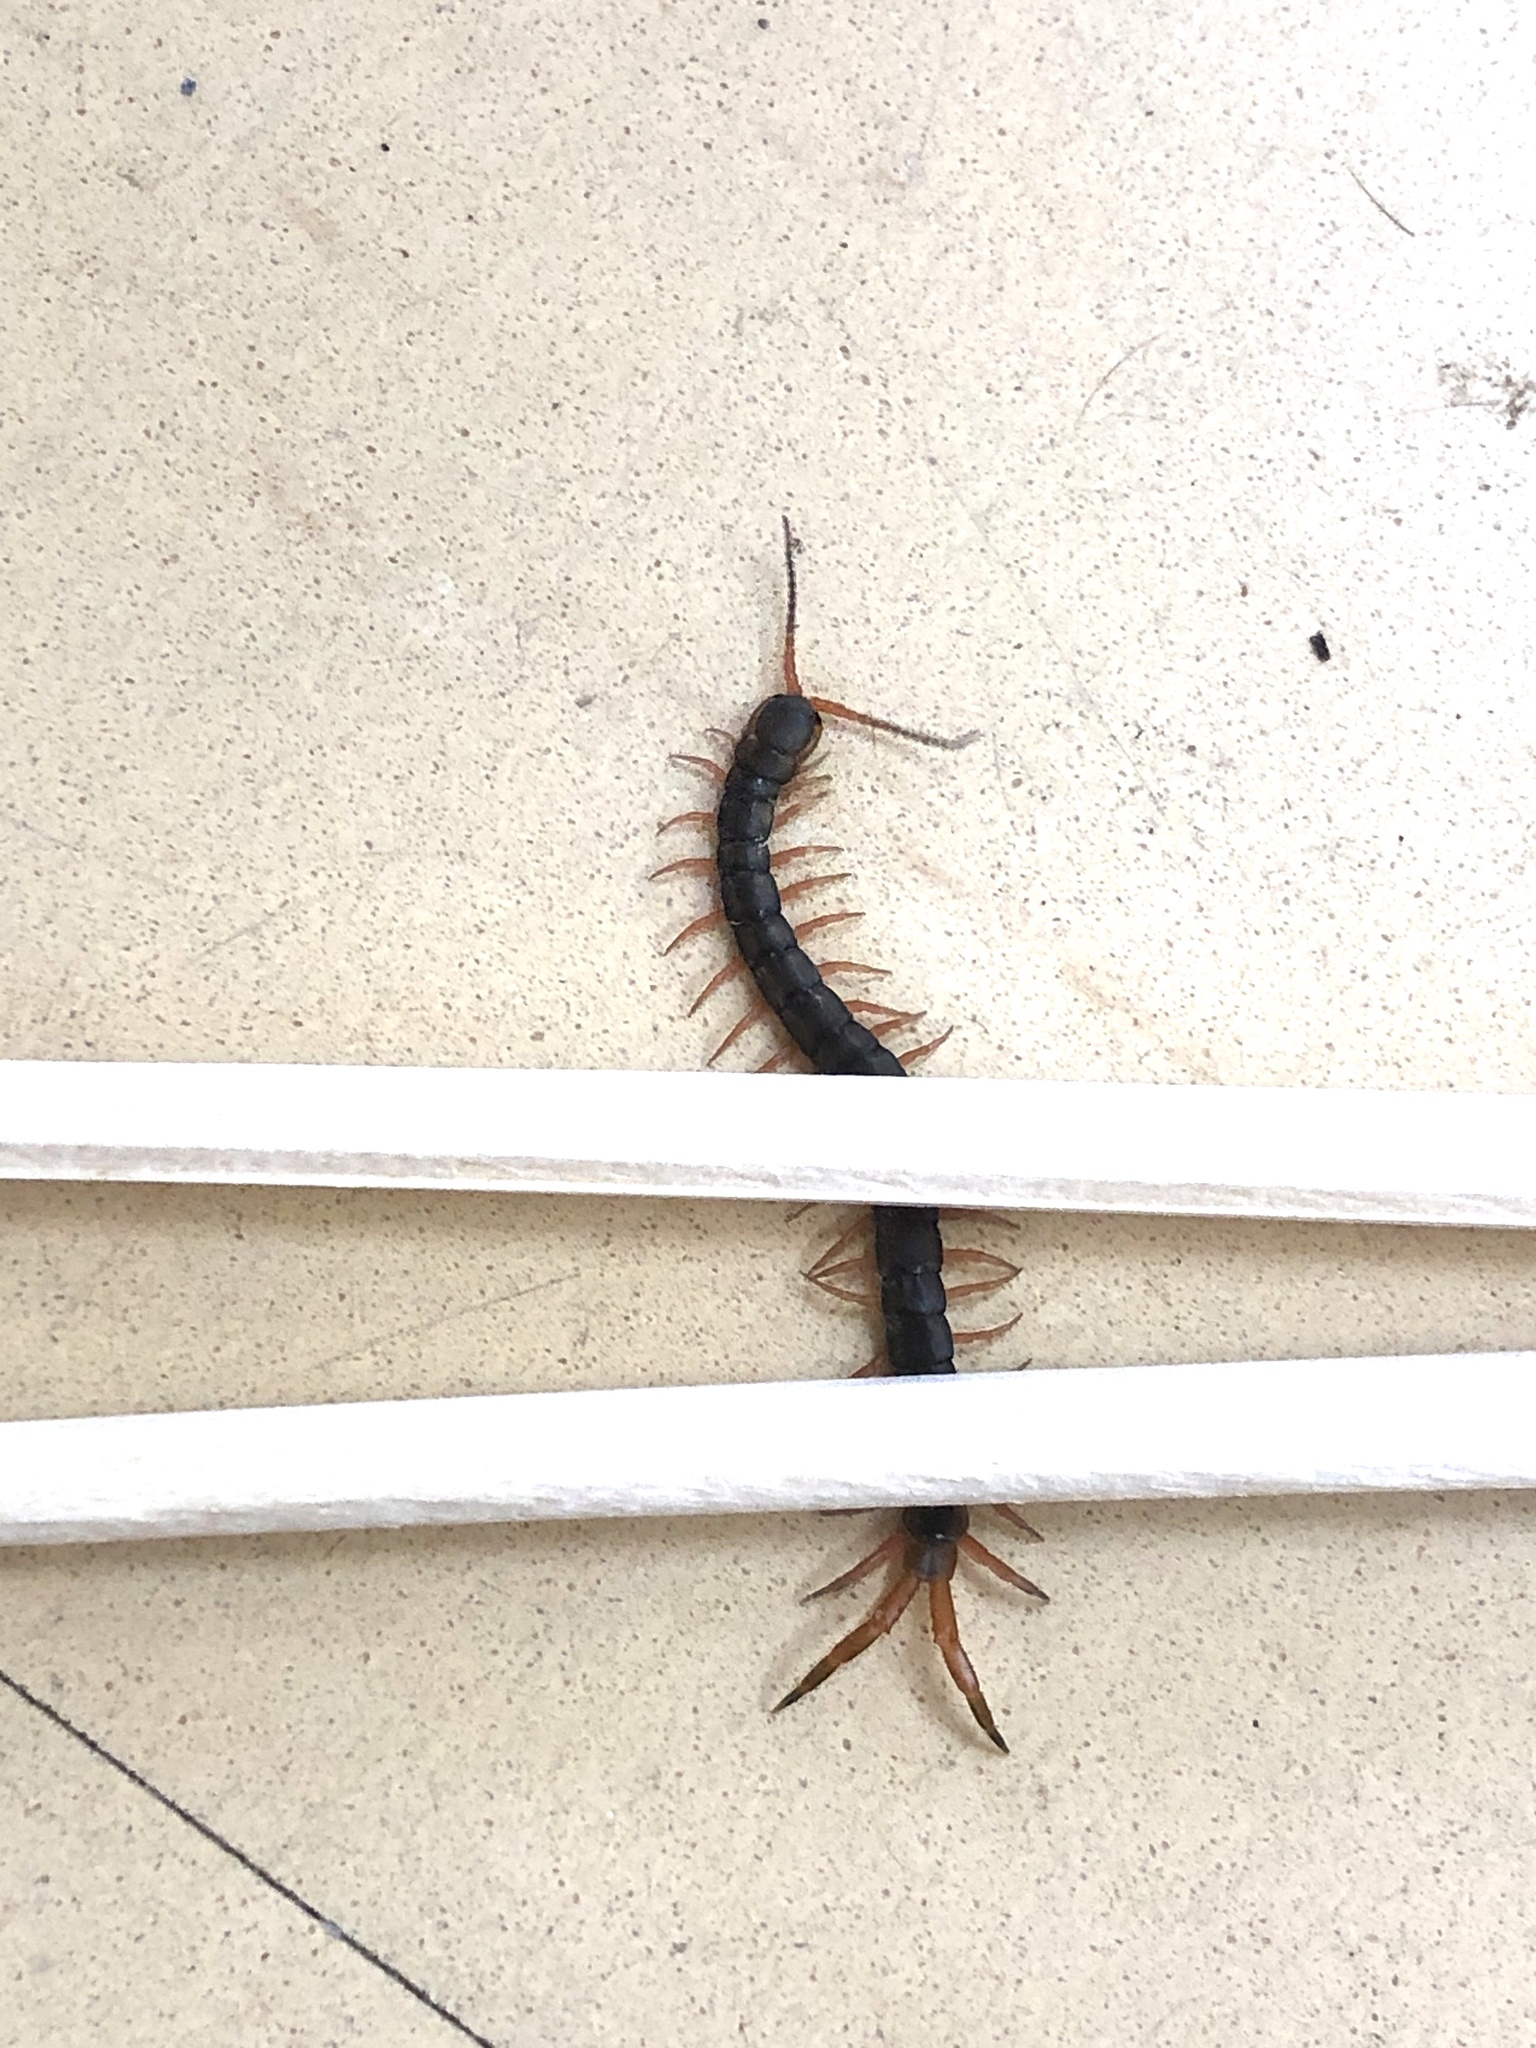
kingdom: Animalia
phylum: Arthropoda
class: Chilopoda
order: Scolopendromorpha
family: Scolopendridae
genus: Scolopendra
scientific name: Scolopendra japonica
